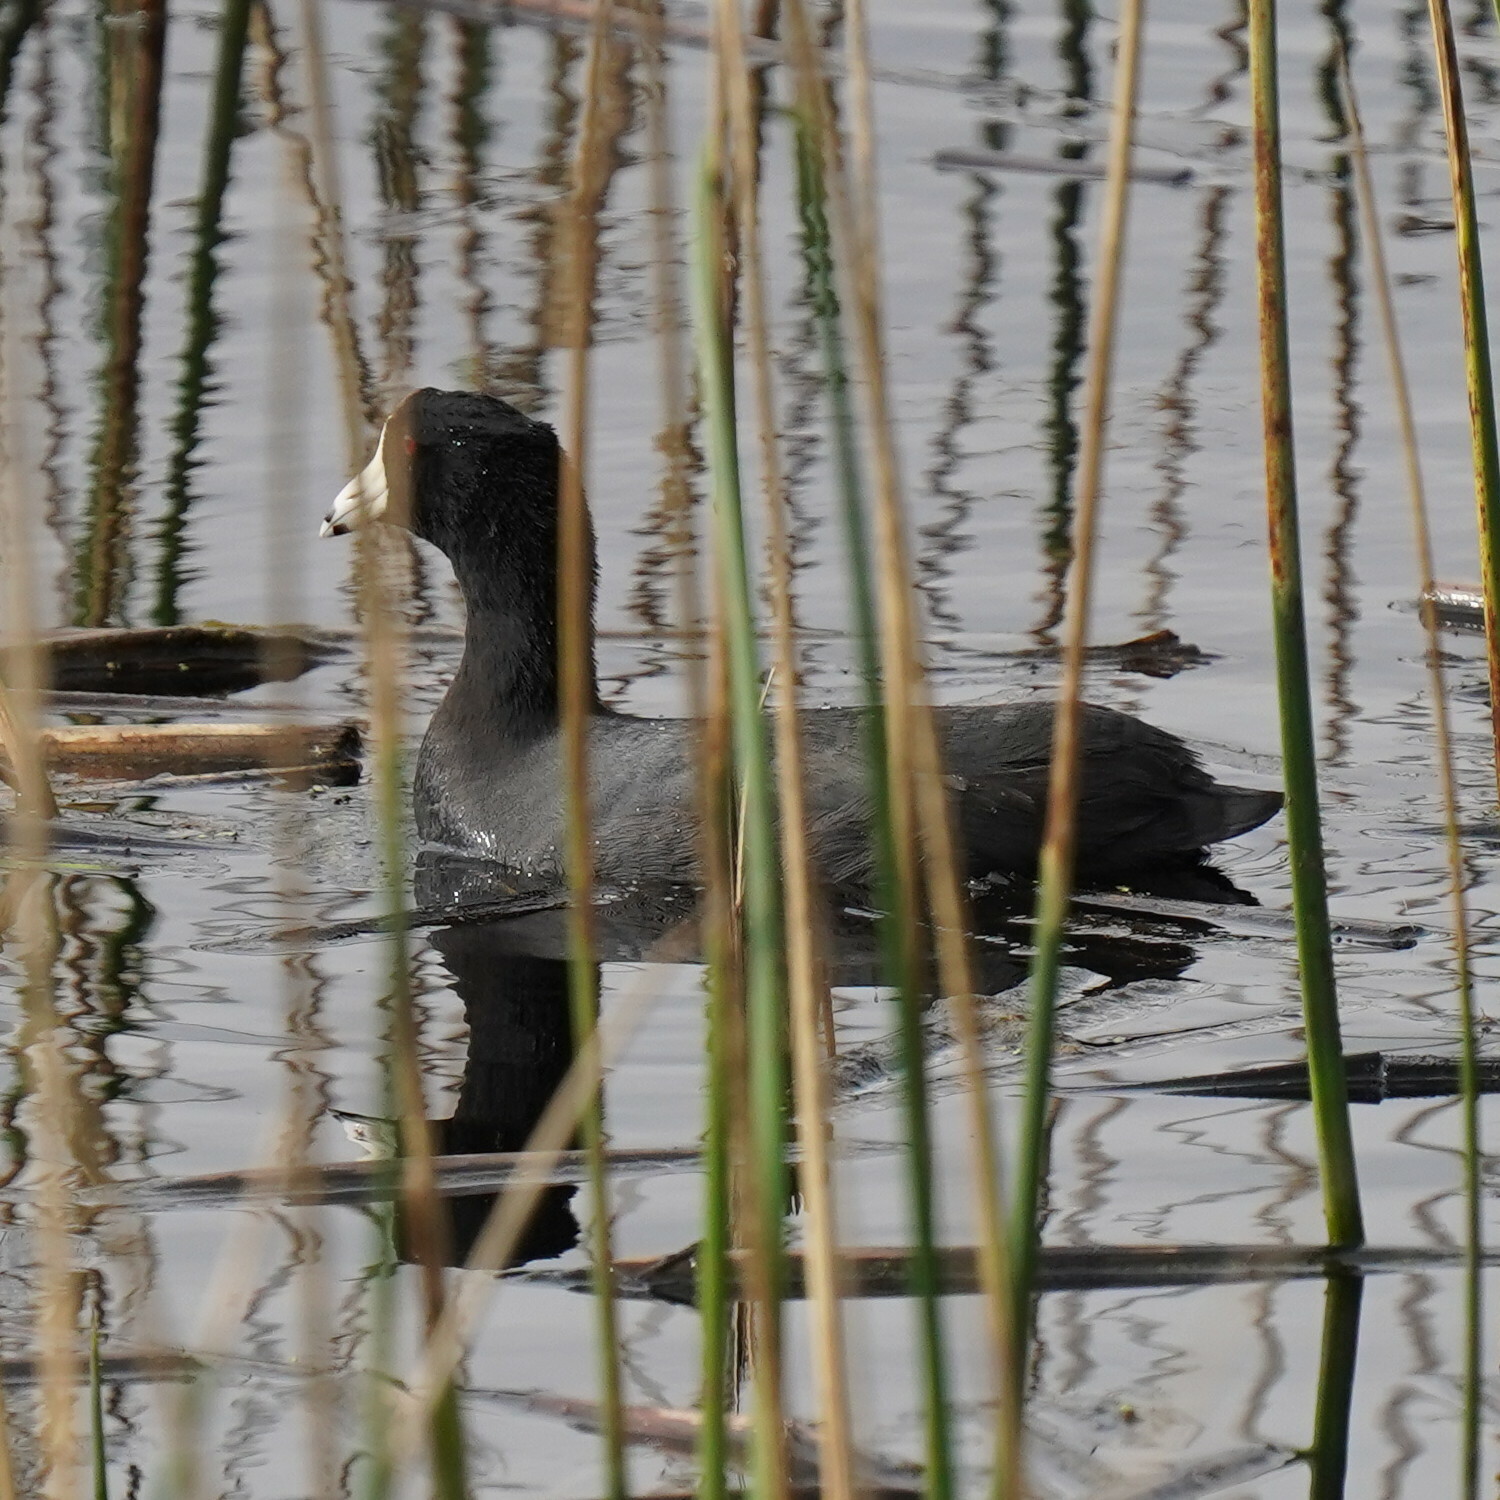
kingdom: Animalia
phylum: Chordata
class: Aves
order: Gruiformes
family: Rallidae
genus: Fulica
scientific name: Fulica americana
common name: American coot
